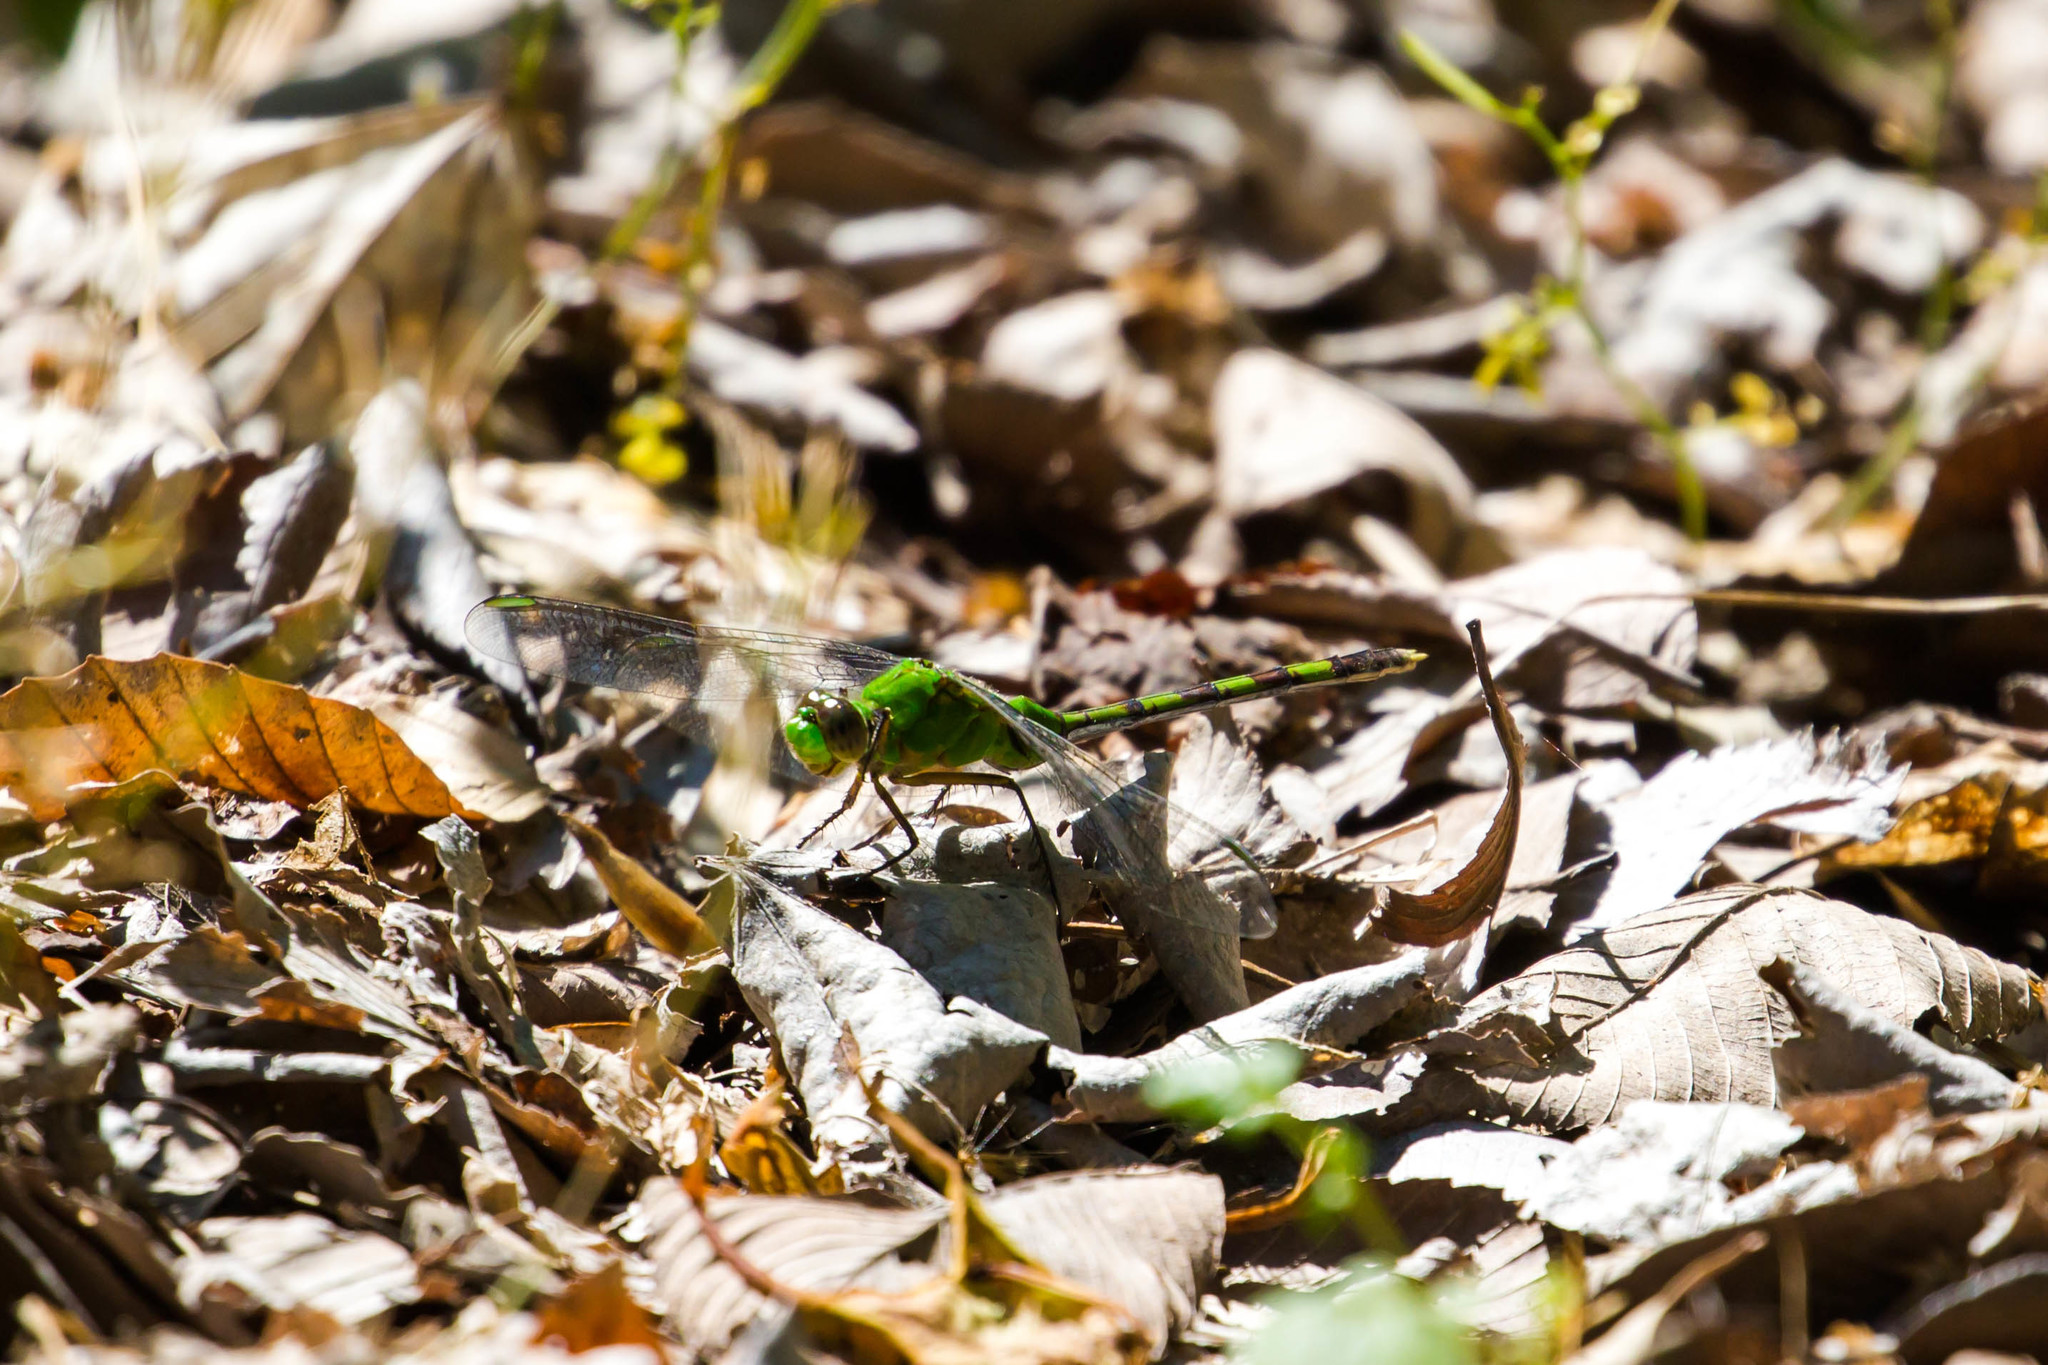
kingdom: Animalia
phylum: Arthropoda
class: Insecta
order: Odonata
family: Libellulidae
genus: Erythemis
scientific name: Erythemis vesiculosa
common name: Great pondhawk
